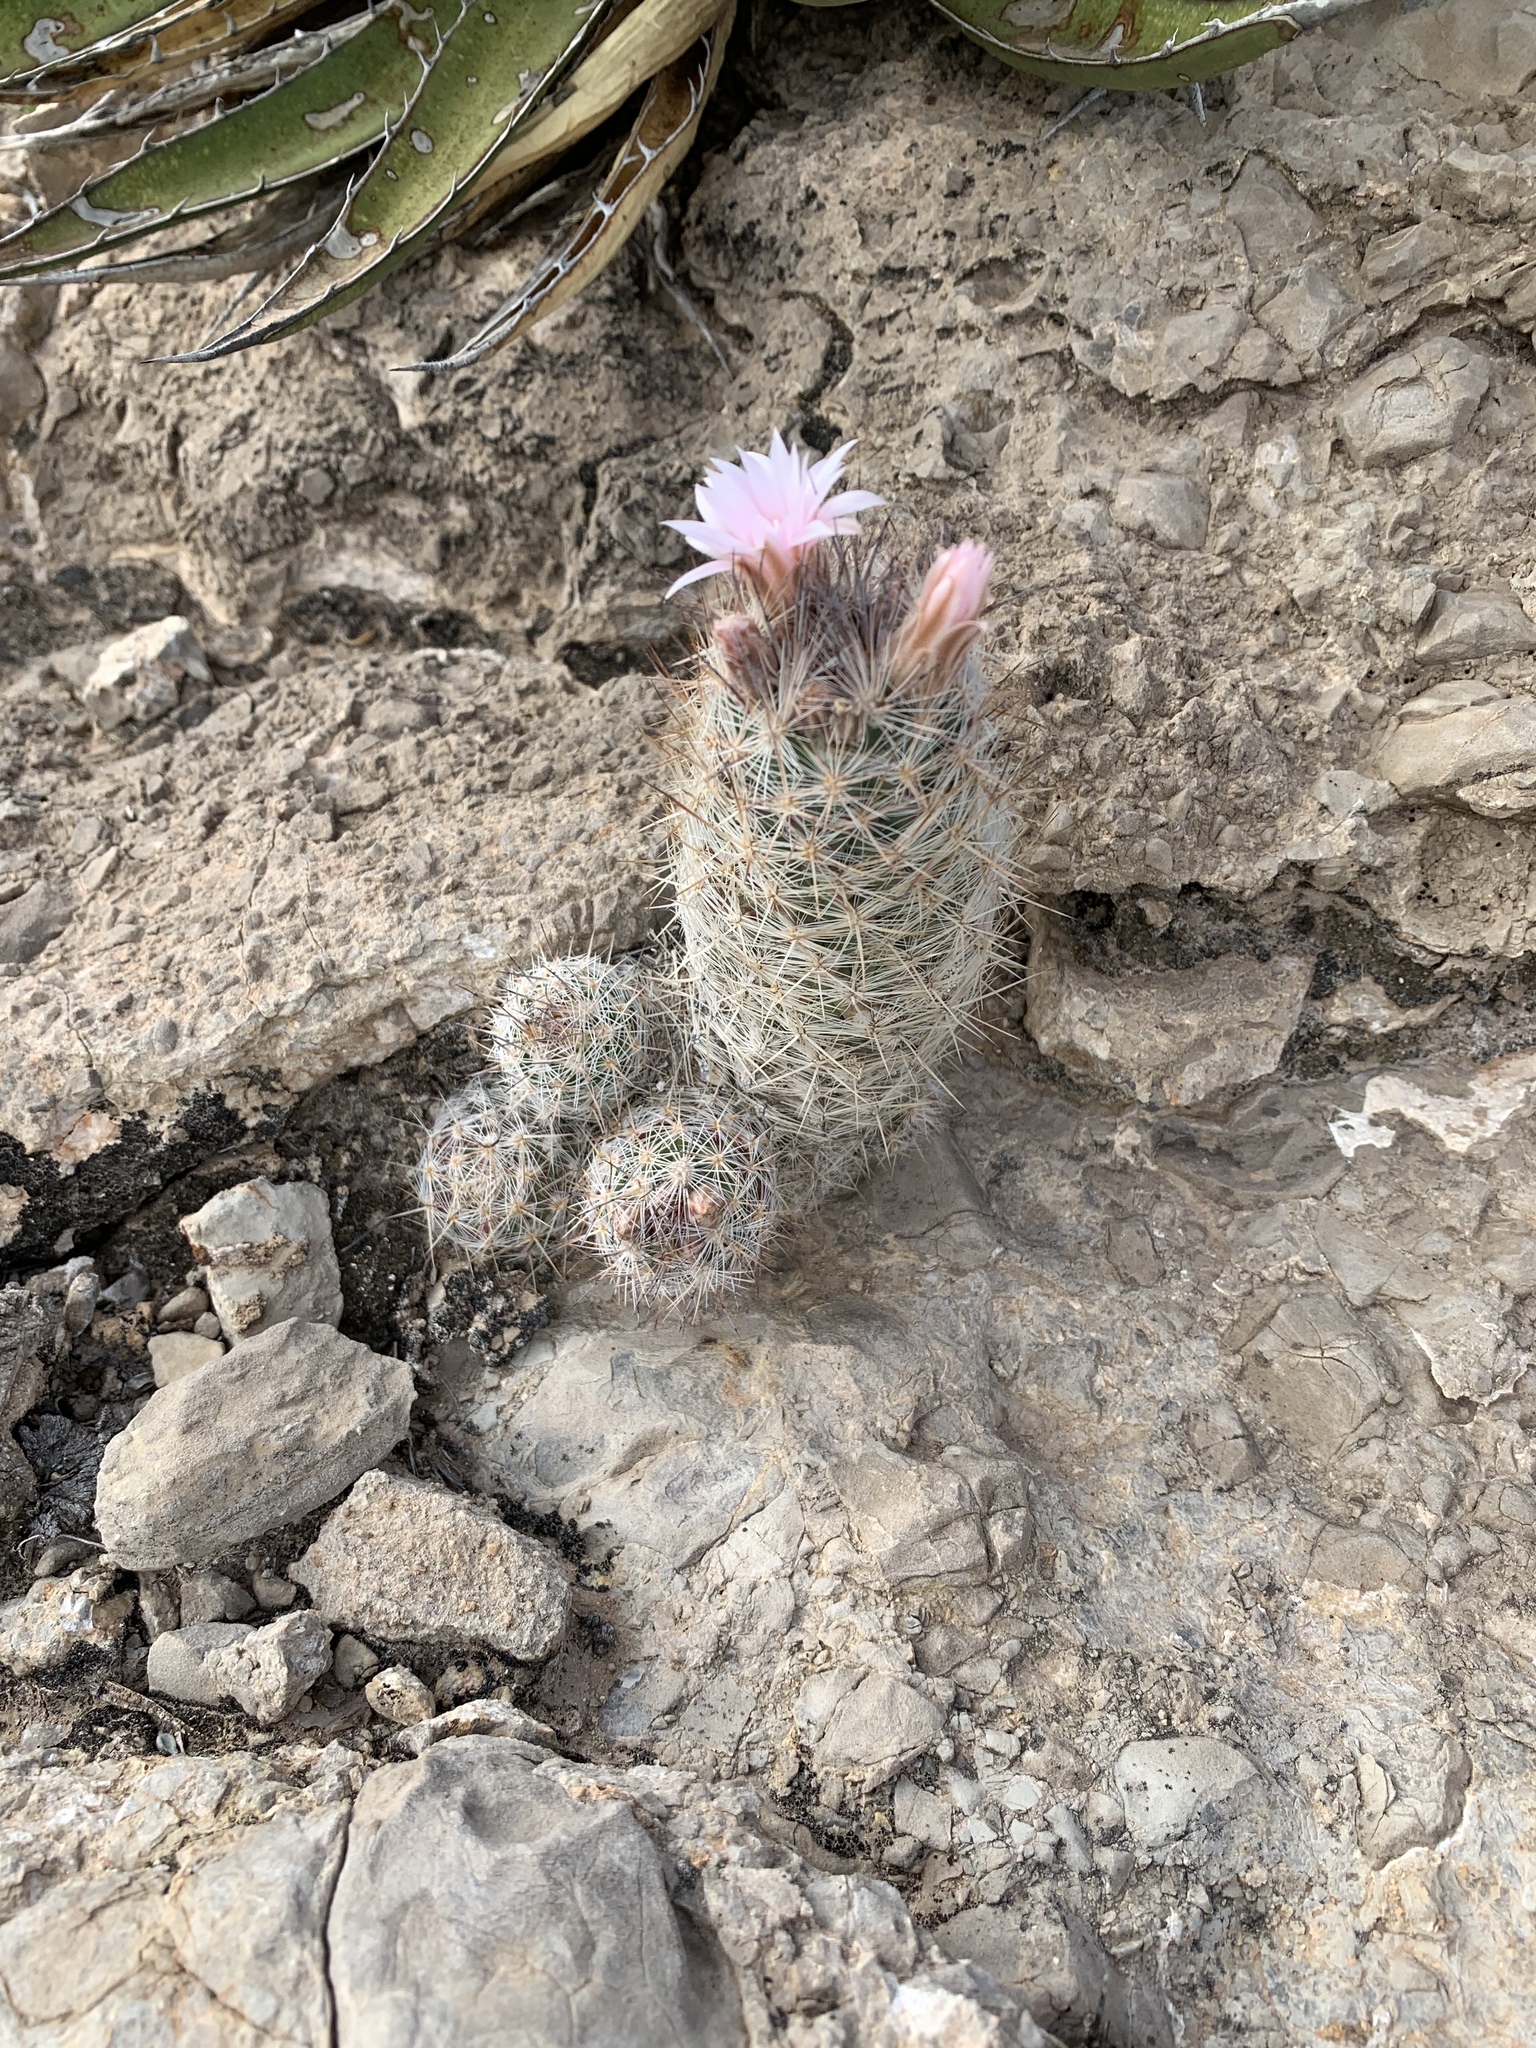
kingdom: Plantae
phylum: Tracheophyta
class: Magnoliopsida
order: Caryophyllales
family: Cactaceae
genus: Pelecyphora
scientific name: Pelecyphora tuberculosa
